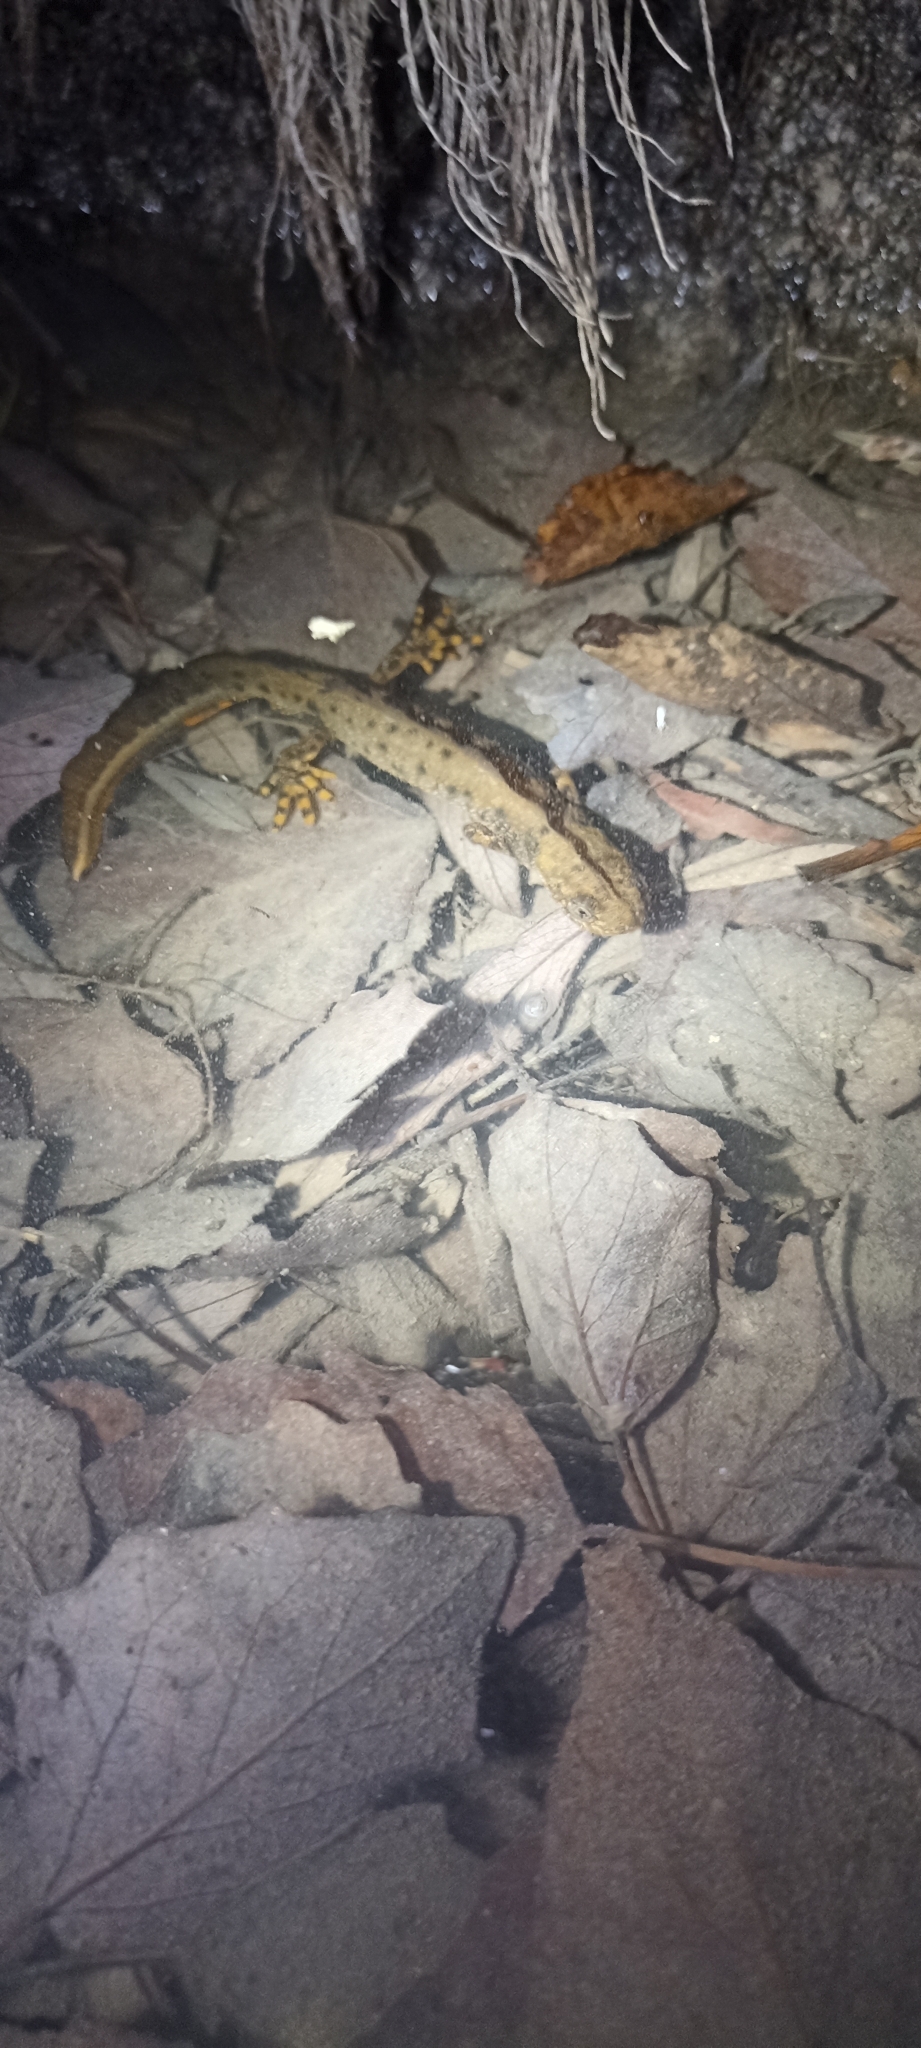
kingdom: Animalia
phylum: Chordata
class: Amphibia
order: Caudata
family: Salamandridae
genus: Triturus
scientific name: Triturus cristatus
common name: Crested newt
